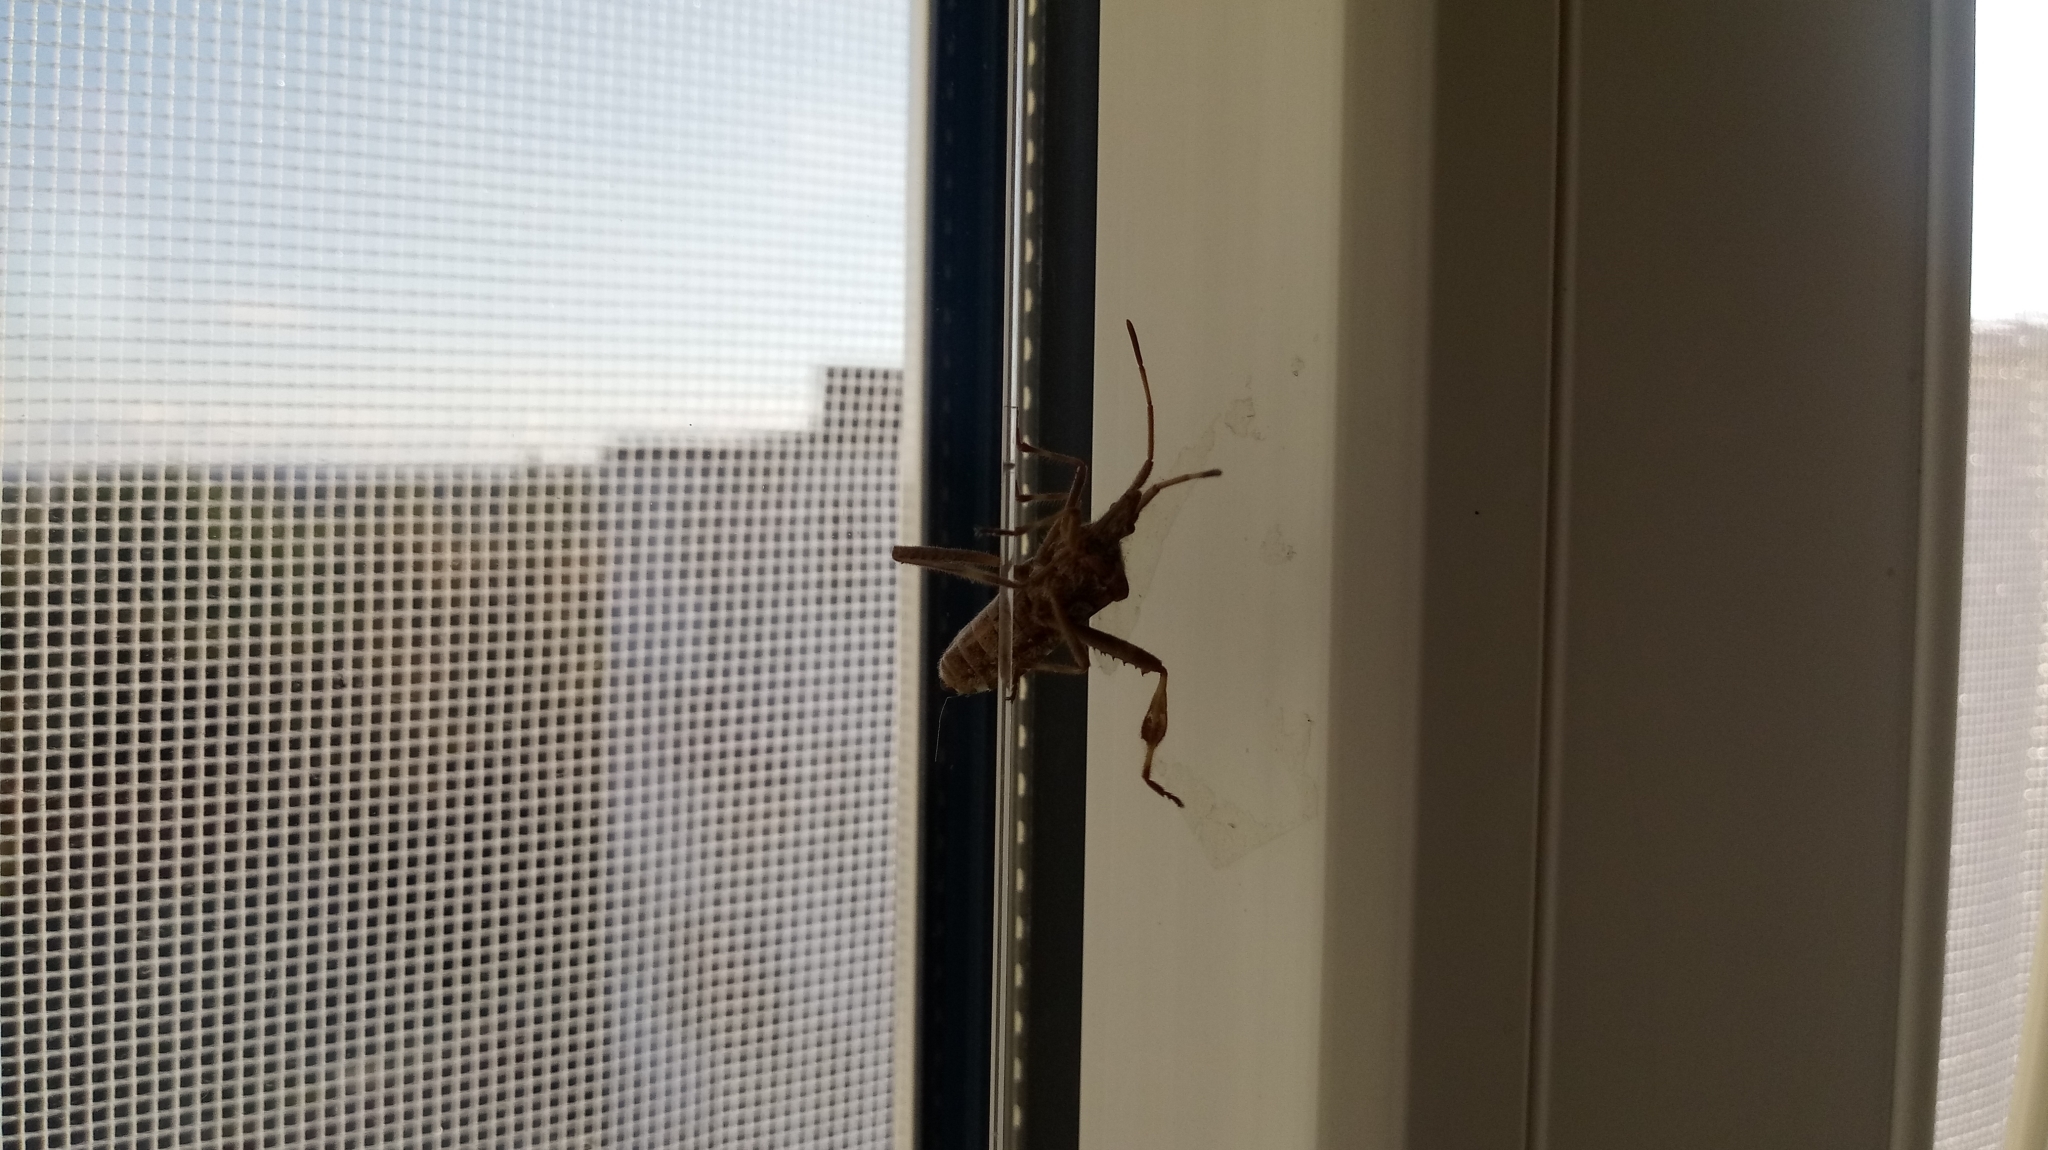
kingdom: Animalia
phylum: Arthropoda
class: Insecta
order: Hemiptera
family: Coreidae
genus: Leptoglossus
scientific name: Leptoglossus occidentalis
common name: Western conifer-seed bug
